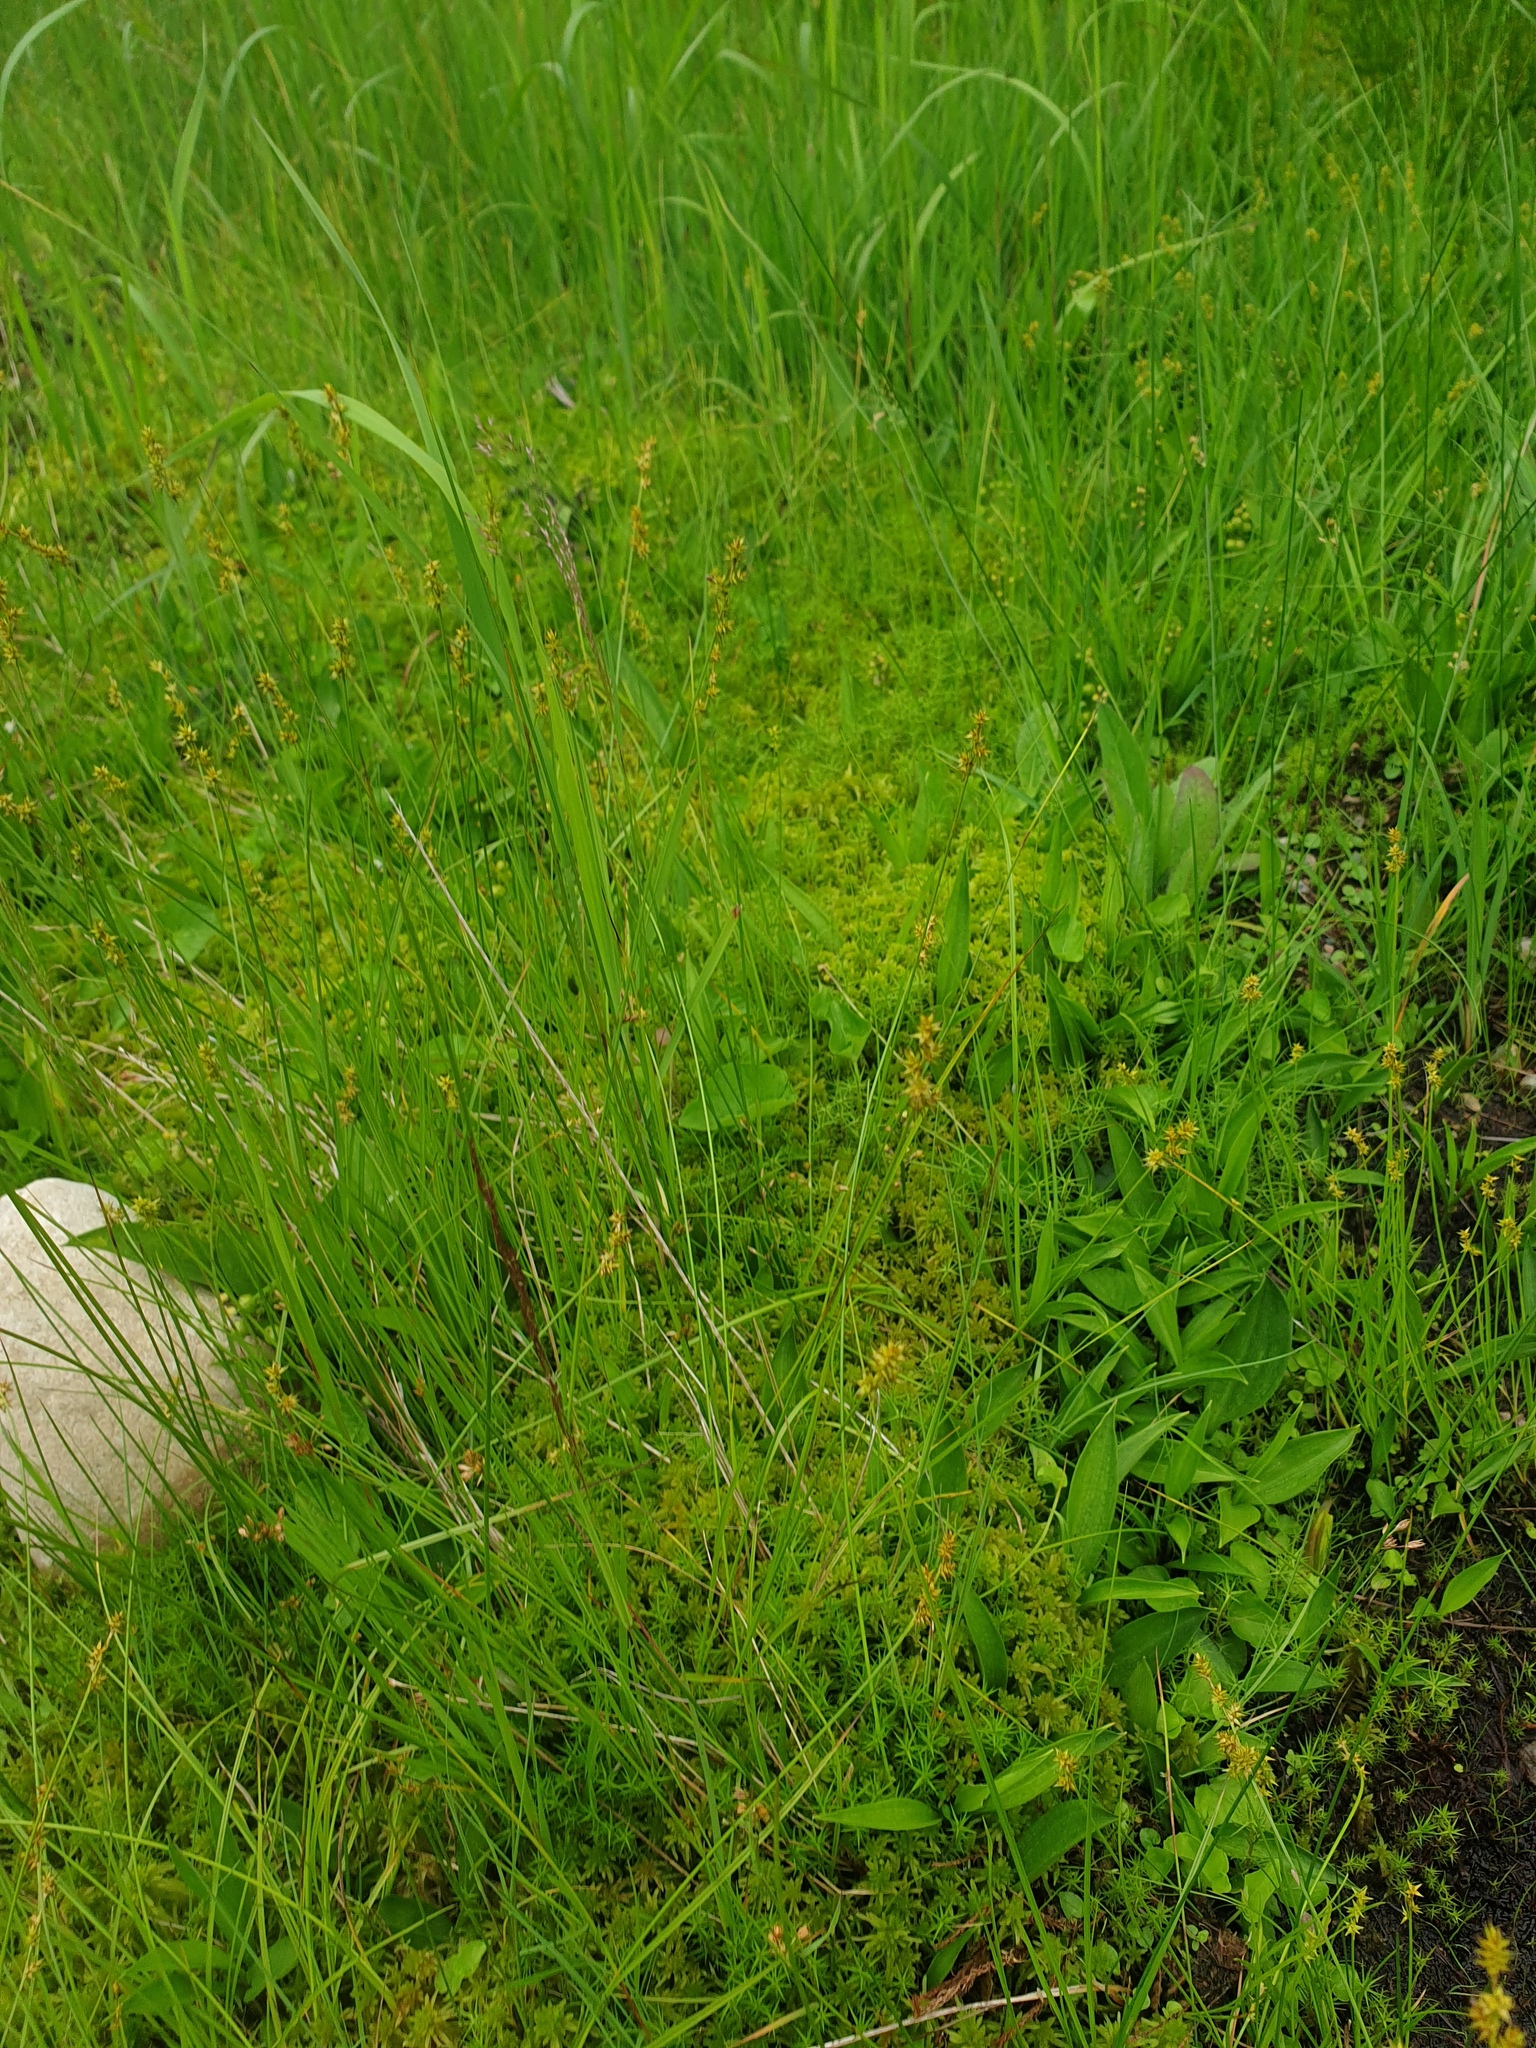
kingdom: Plantae
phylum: Tracheophyta
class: Liliopsida
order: Poales
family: Cyperaceae
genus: Carex
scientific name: Carex echinata
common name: Star sedge
